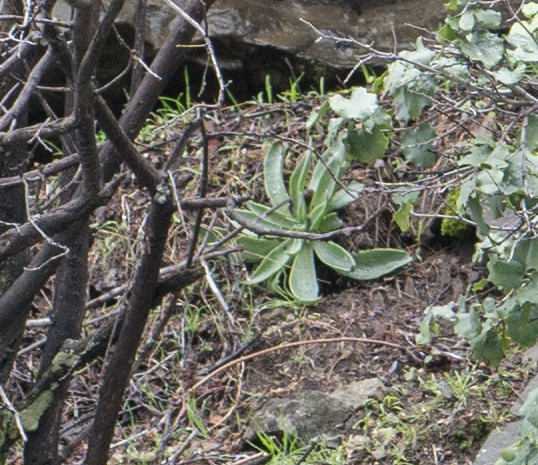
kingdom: Plantae
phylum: Tracheophyta
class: Magnoliopsida
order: Saxifragales
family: Crassulaceae
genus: Dudleya
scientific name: Dudleya lanceolata
